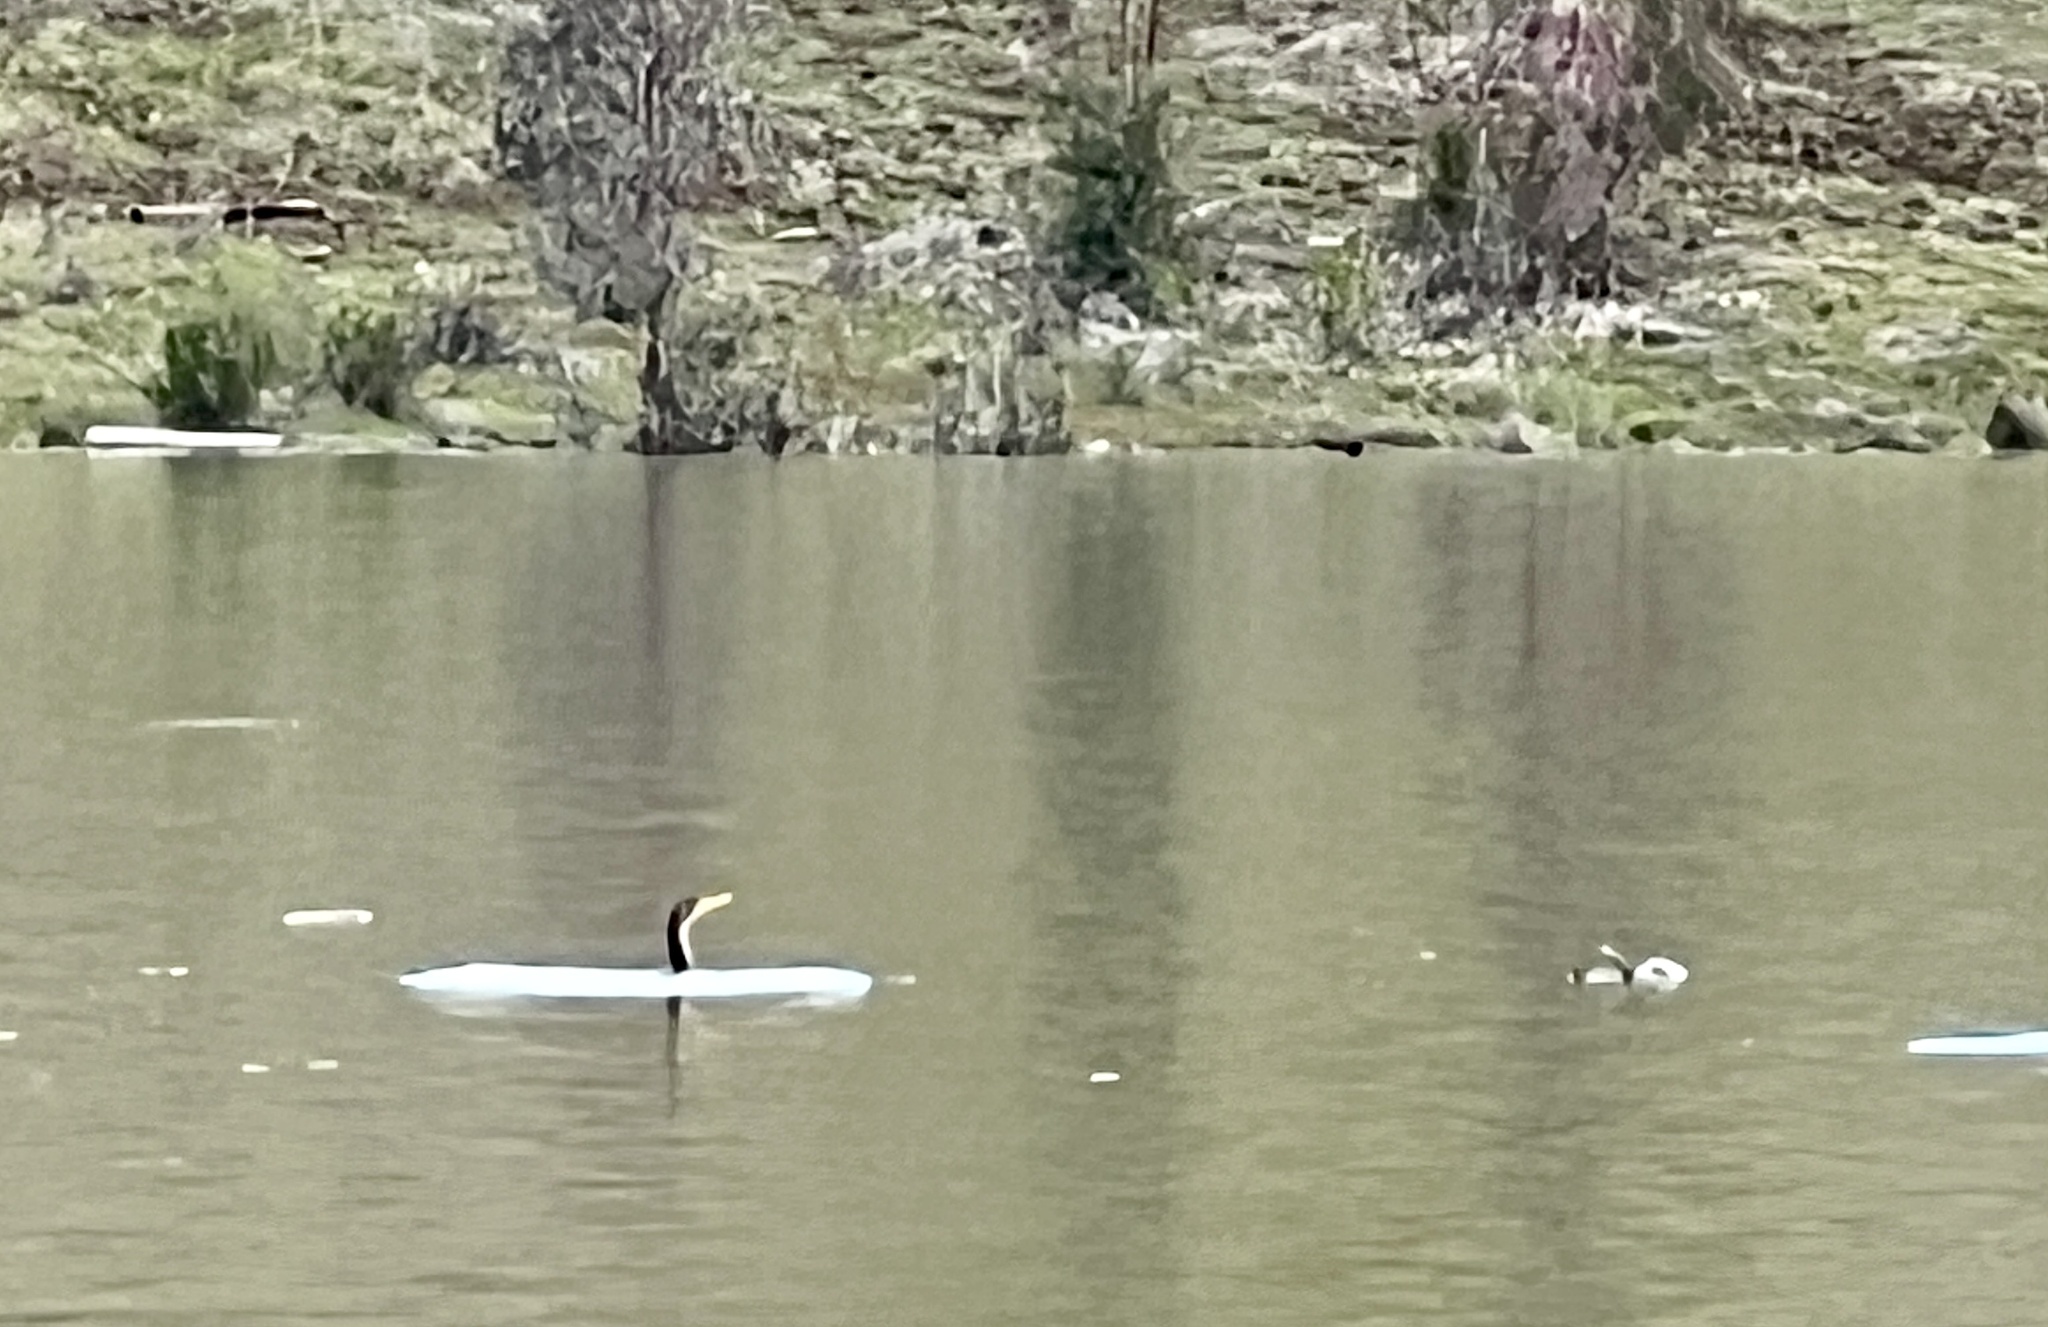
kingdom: Animalia
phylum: Chordata
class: Aves
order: Suliformes
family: Phalacrocoracidae
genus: Phalacrocorax
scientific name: Phalacrocorax auritus
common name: Double-crested cormorant
